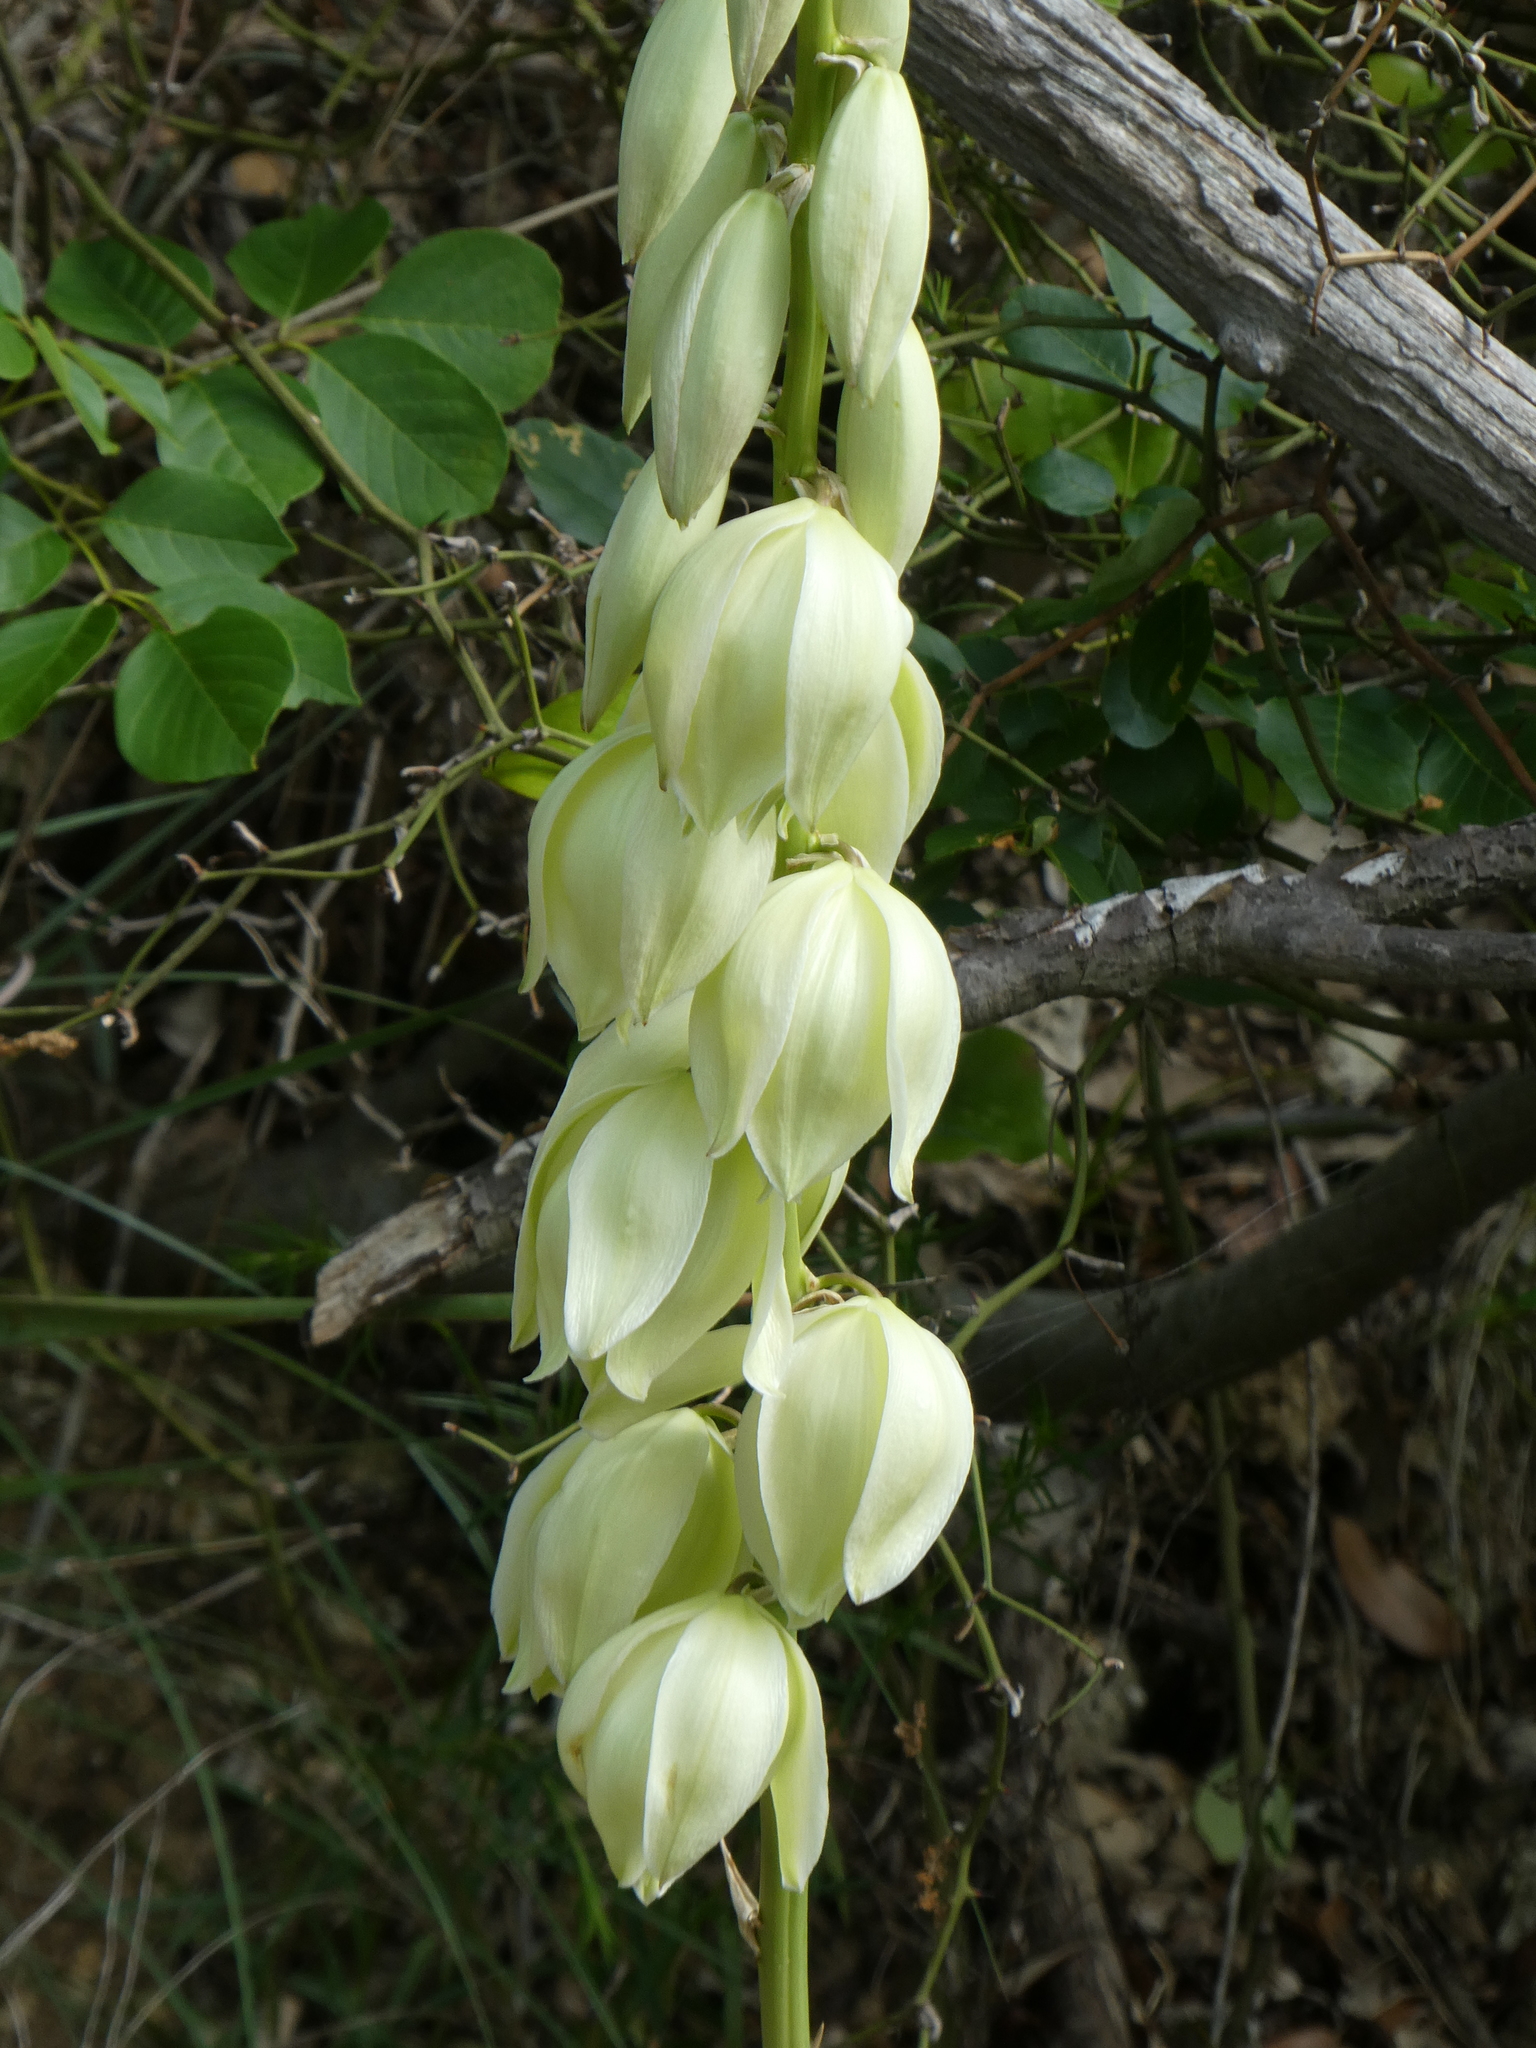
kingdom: Plantae
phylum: Tracheophyta
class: Liliopsida
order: Asparagales
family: Asparagaceae
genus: Yucca
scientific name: Yucca arkansana
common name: Arkansas yucca
